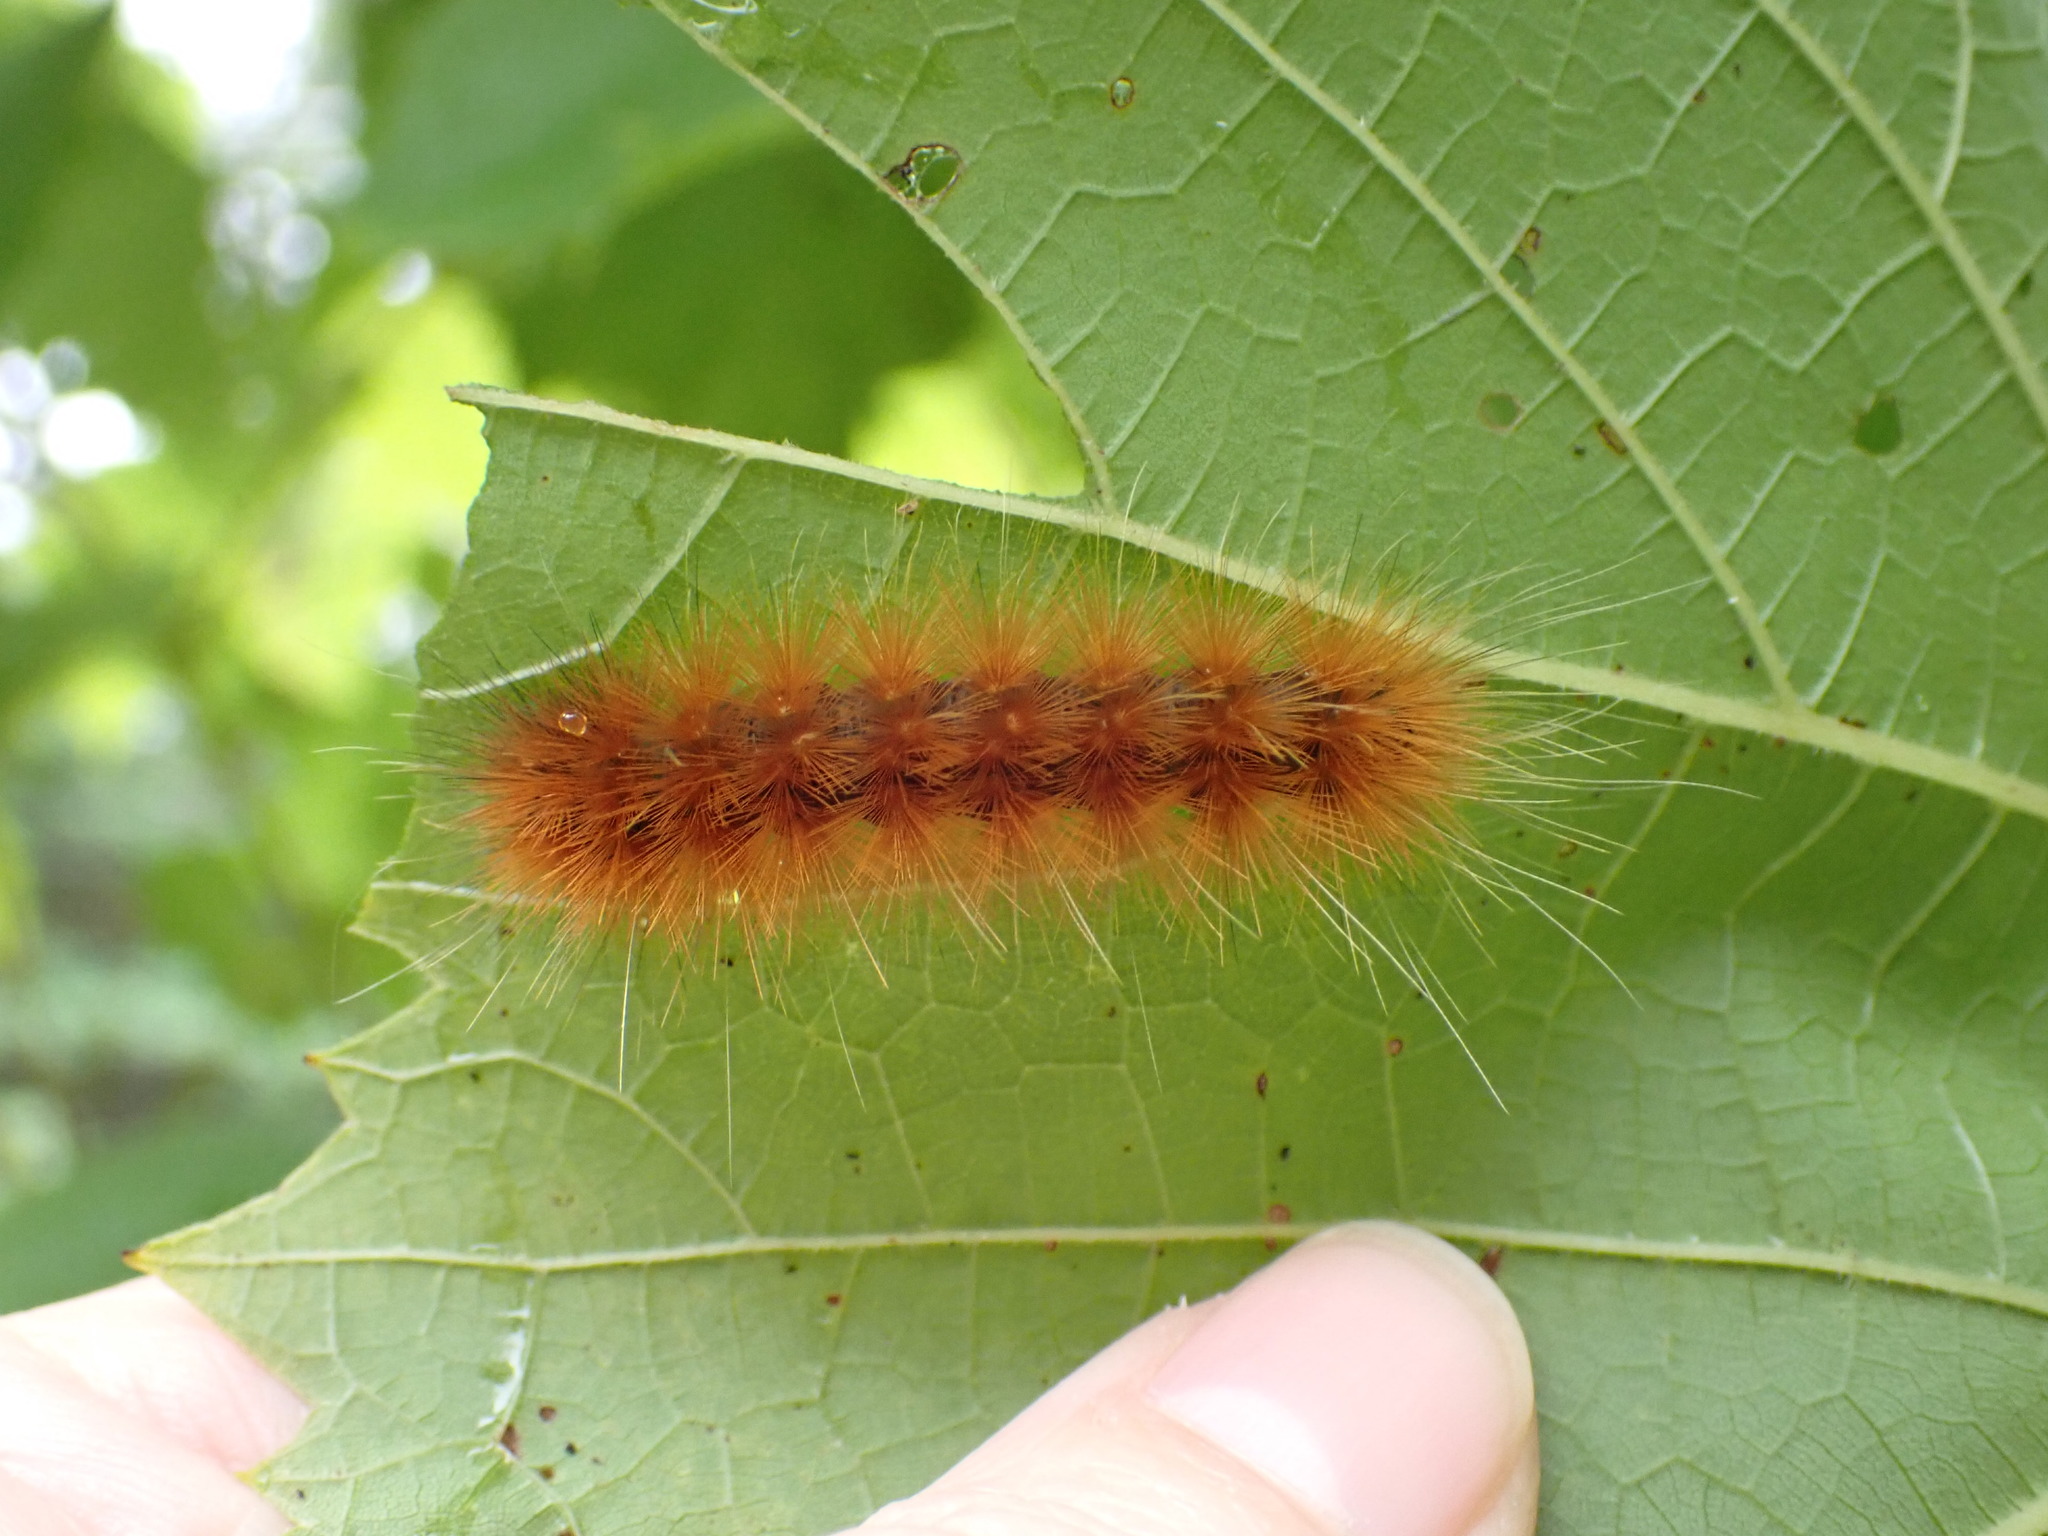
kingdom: Animalia
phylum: Arthropoda
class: Insecta
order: Lepidoptera
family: Erebidae
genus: Spilosoma
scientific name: Spilosoma virginica
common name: Virginia tiger moth
